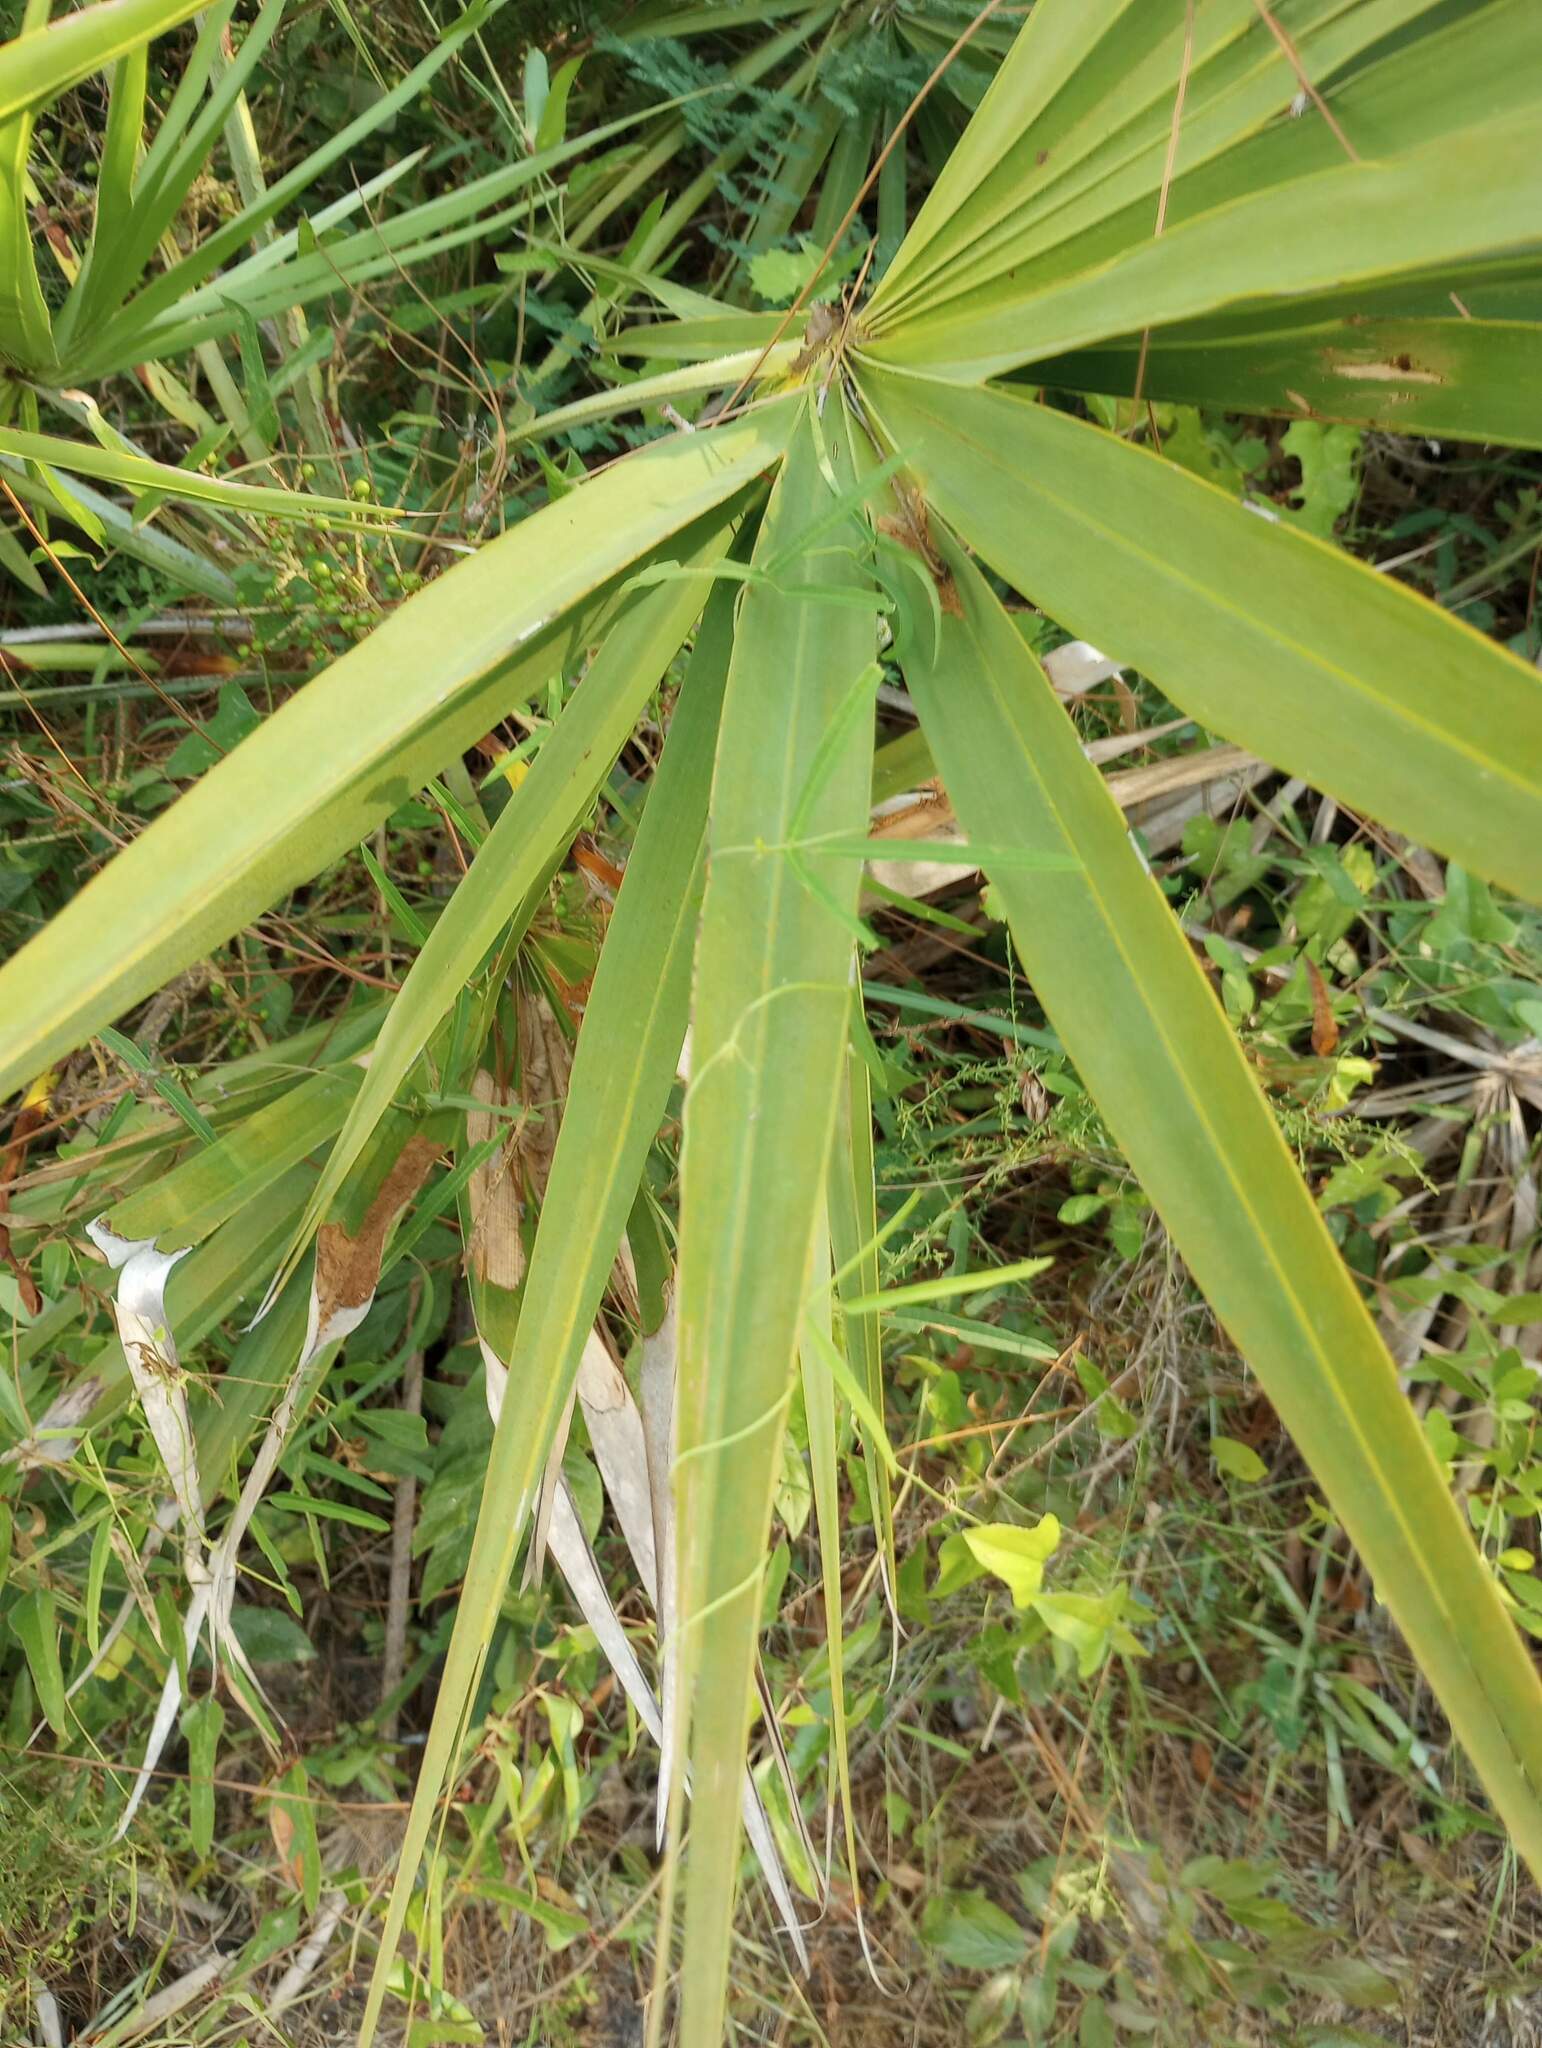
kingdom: Plantae
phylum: Tracheophyta
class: Liliopsida
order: Arecales
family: Arecaceae
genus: Serenoa
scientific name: Serenoa repens
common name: Saw-palmetto
